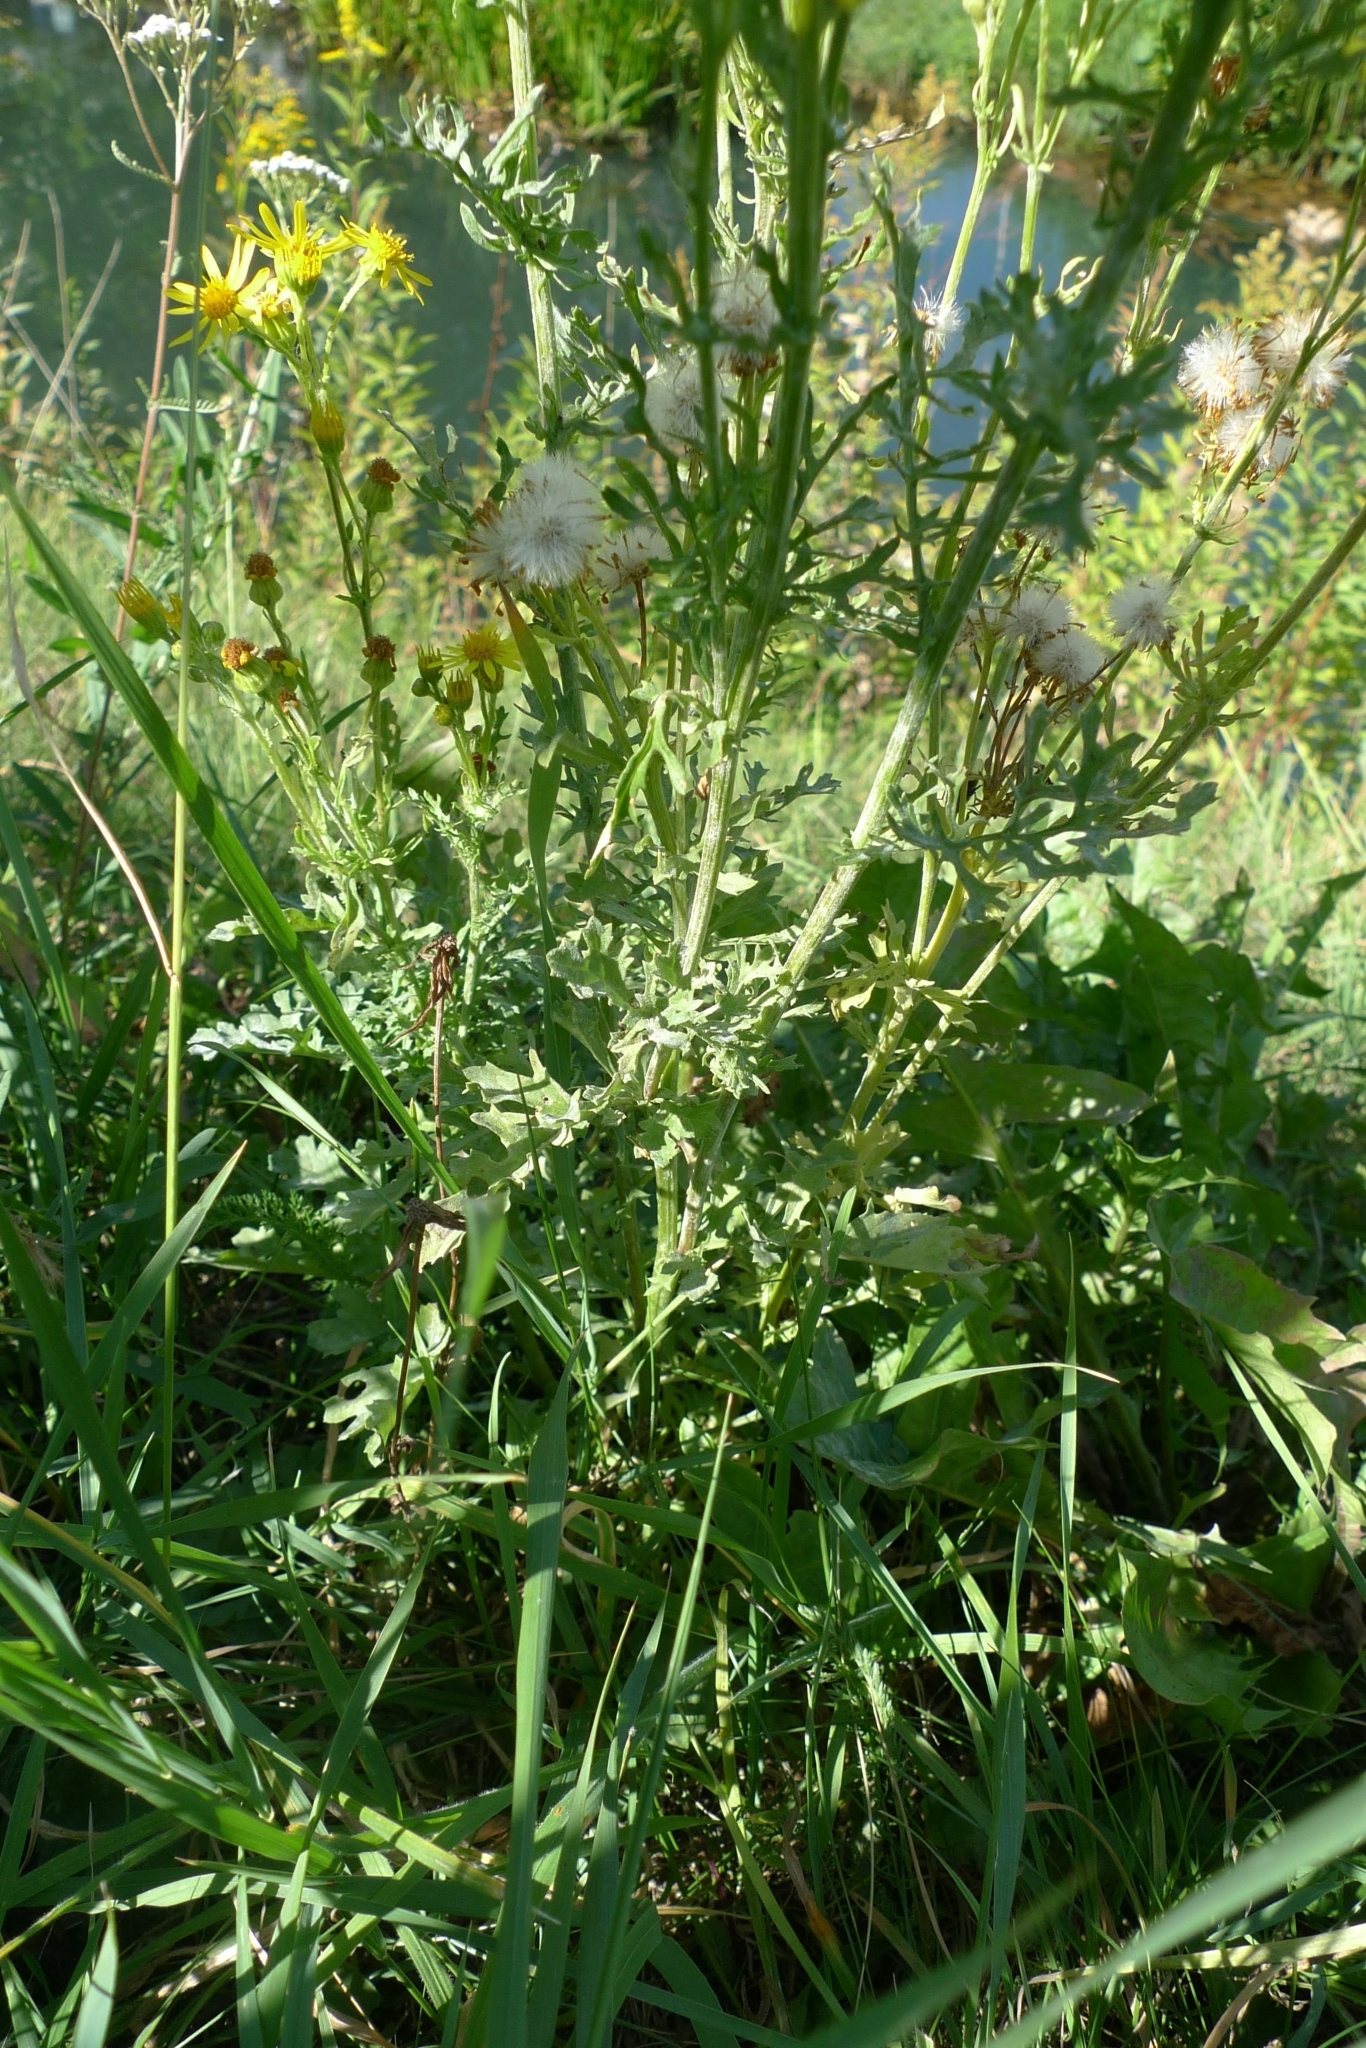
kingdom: Plantae
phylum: Tracheophyta
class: Magnoliopsida
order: Asterales
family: Asteraceae
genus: Jacobaea
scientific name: Jacobaea vulgaris
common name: Stinking willie
